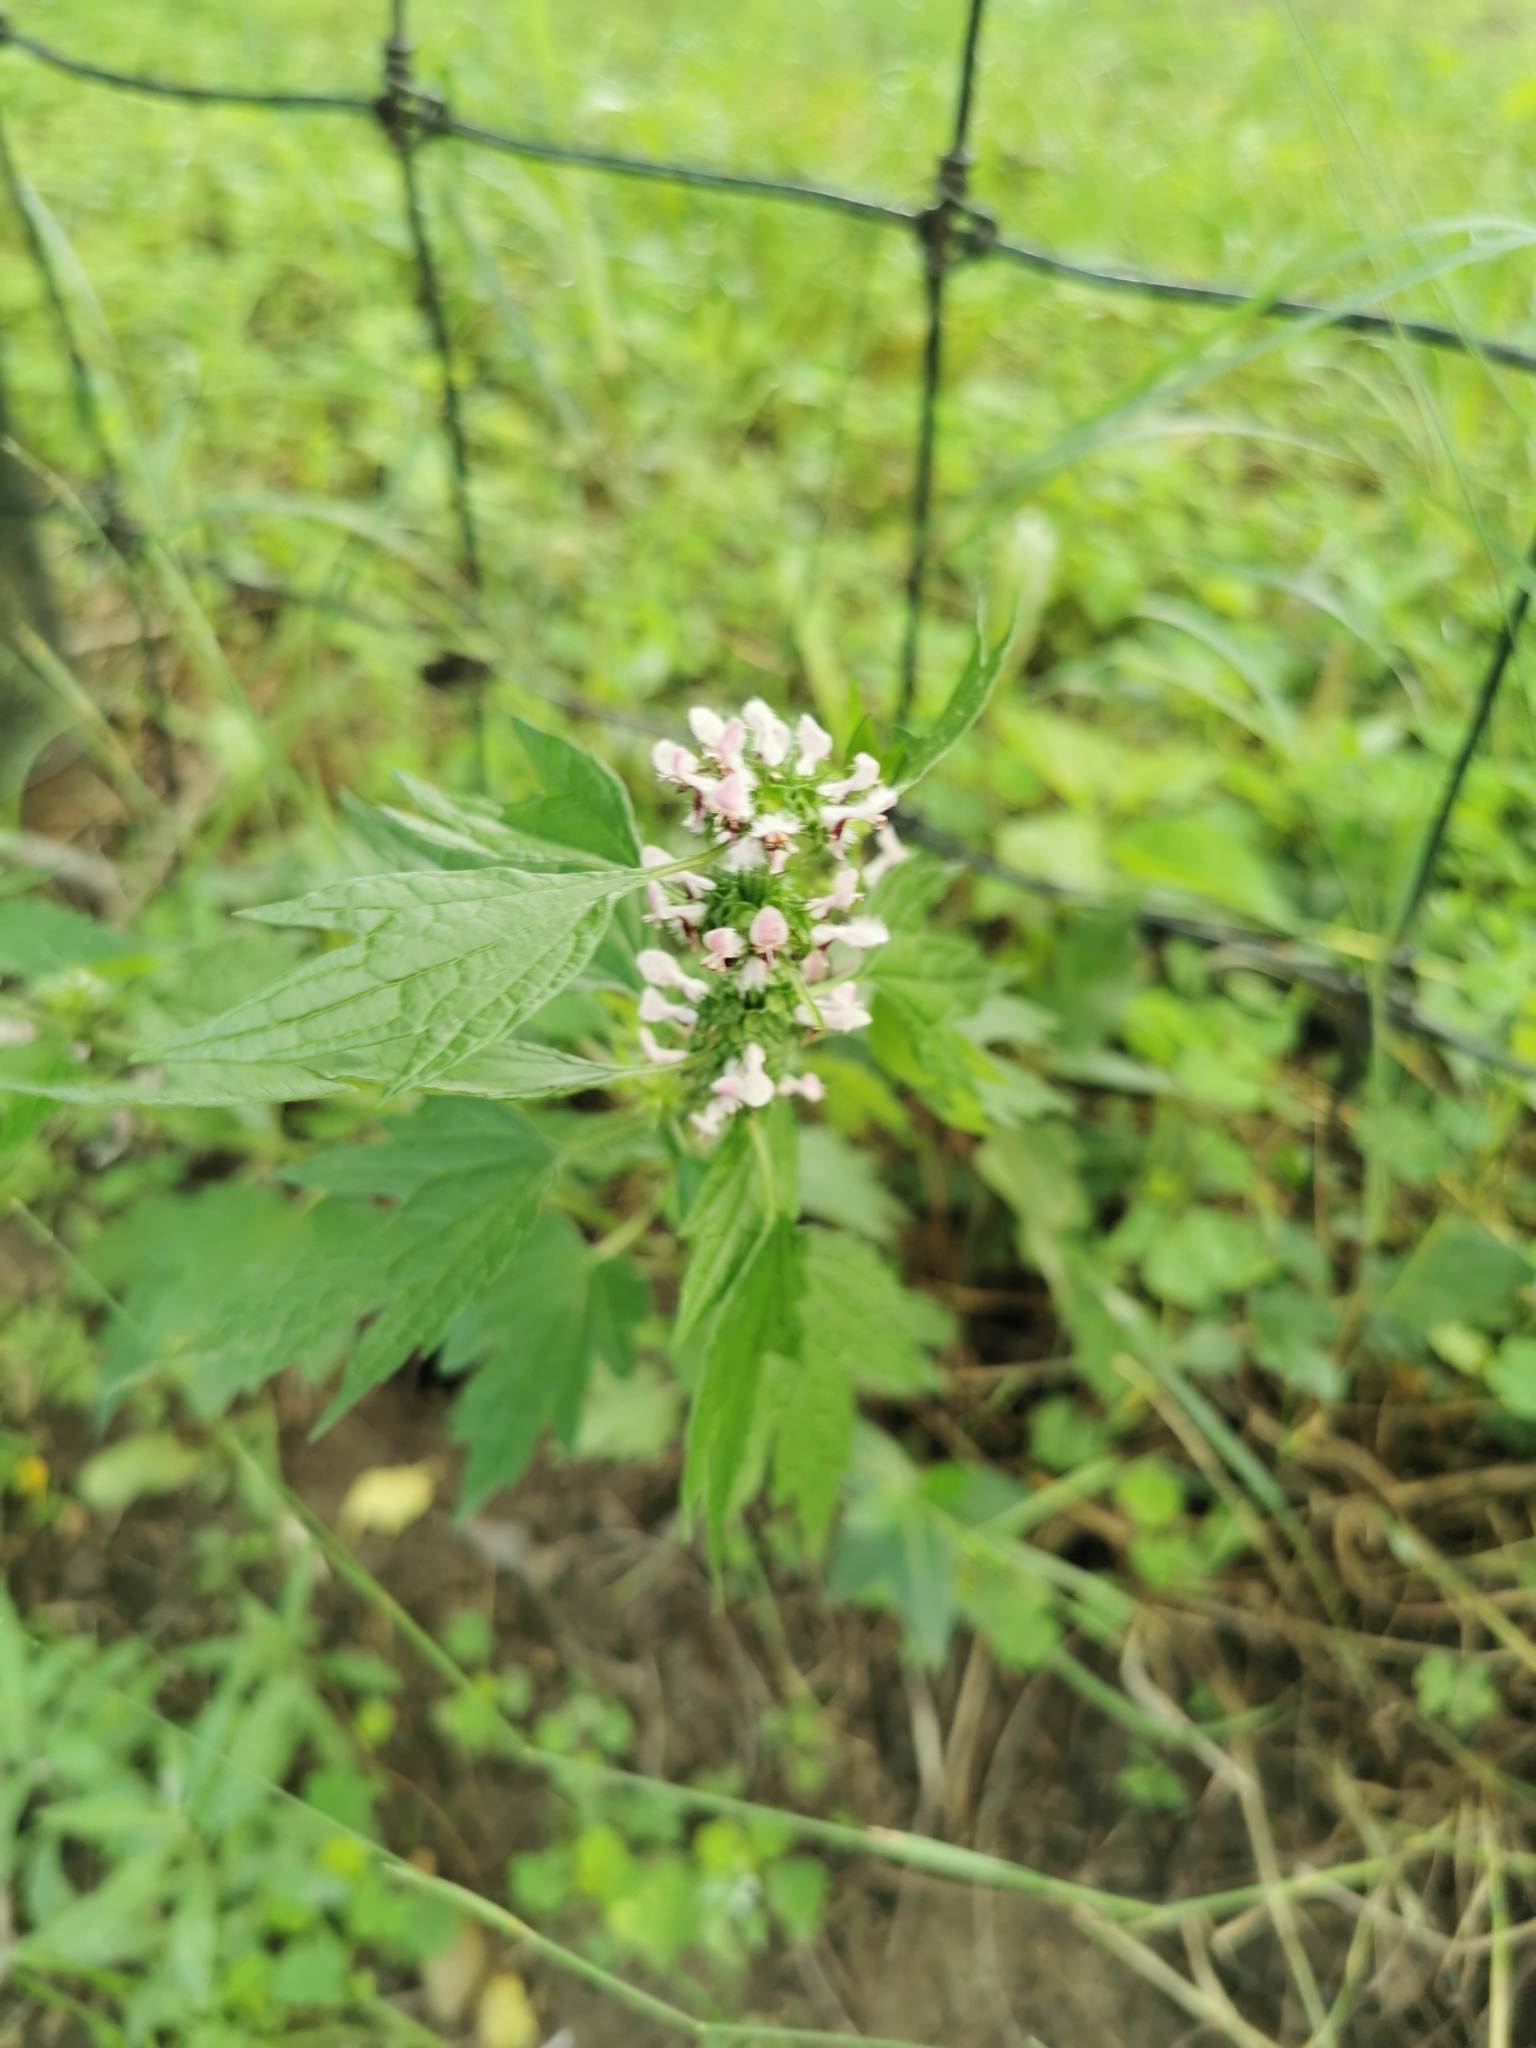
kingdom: Plantae
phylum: Tracheophyta
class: Magnoliopsida
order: Lamiales
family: Lamiaceae
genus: Leonurus
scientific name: Leonurus cardiaca
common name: Motherwort
